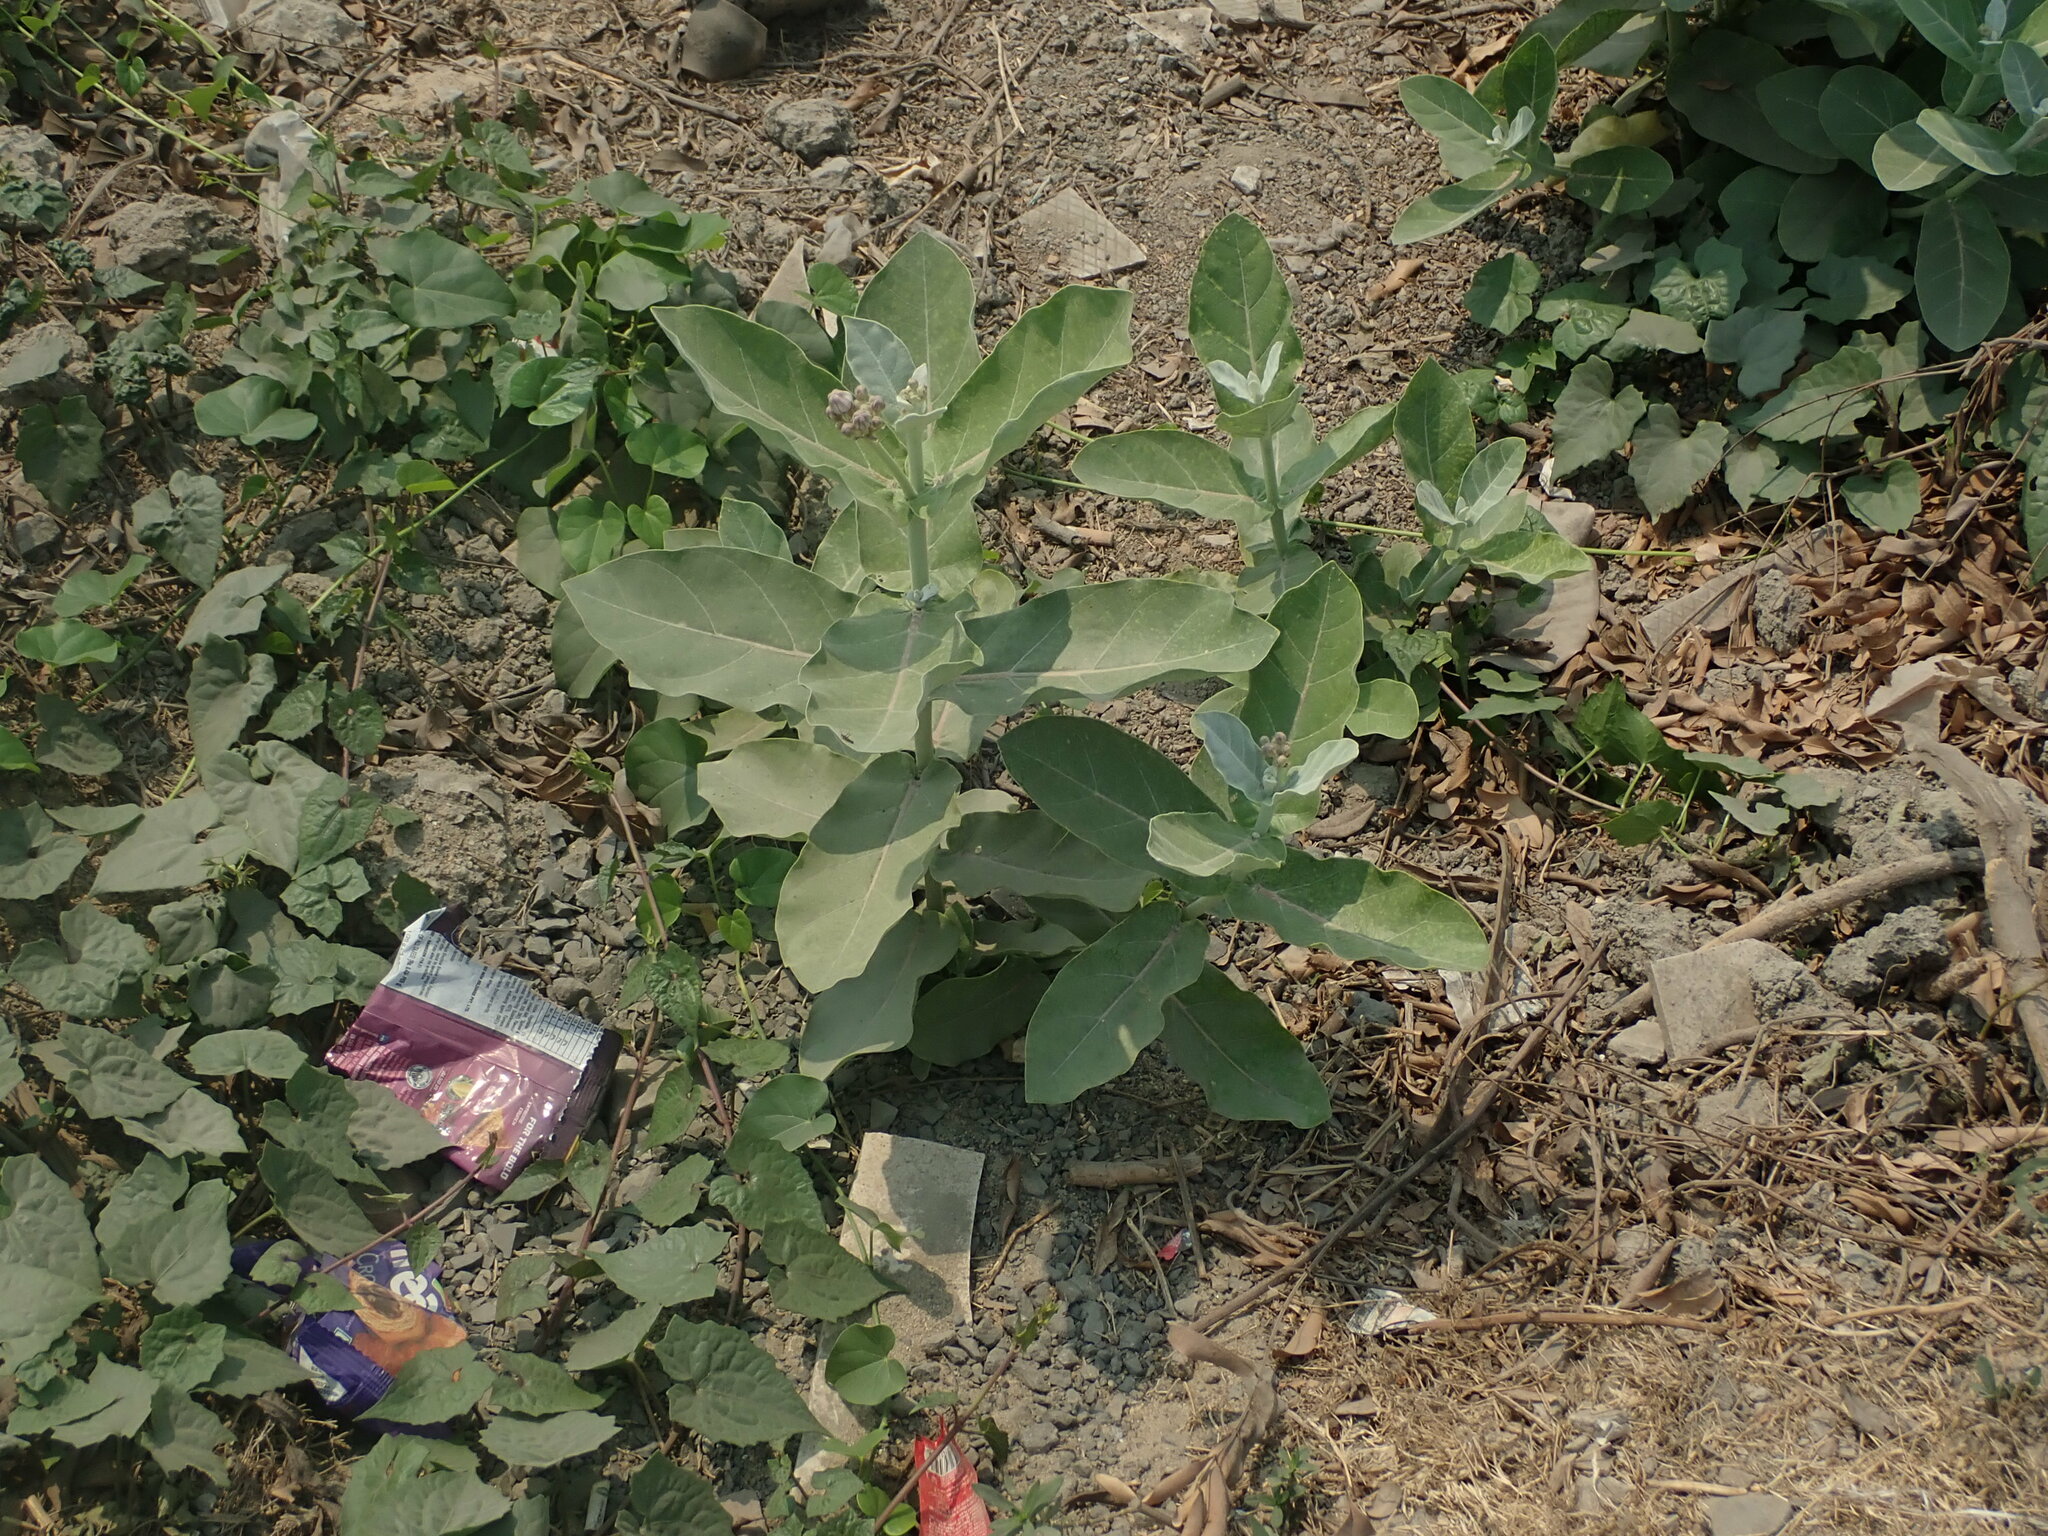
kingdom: Plantae
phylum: Tracheophyta
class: Magnoliopsida
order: Gentianales
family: Apocynaceae
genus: Calotropis
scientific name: Calotropis gigantea
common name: Crown flower
